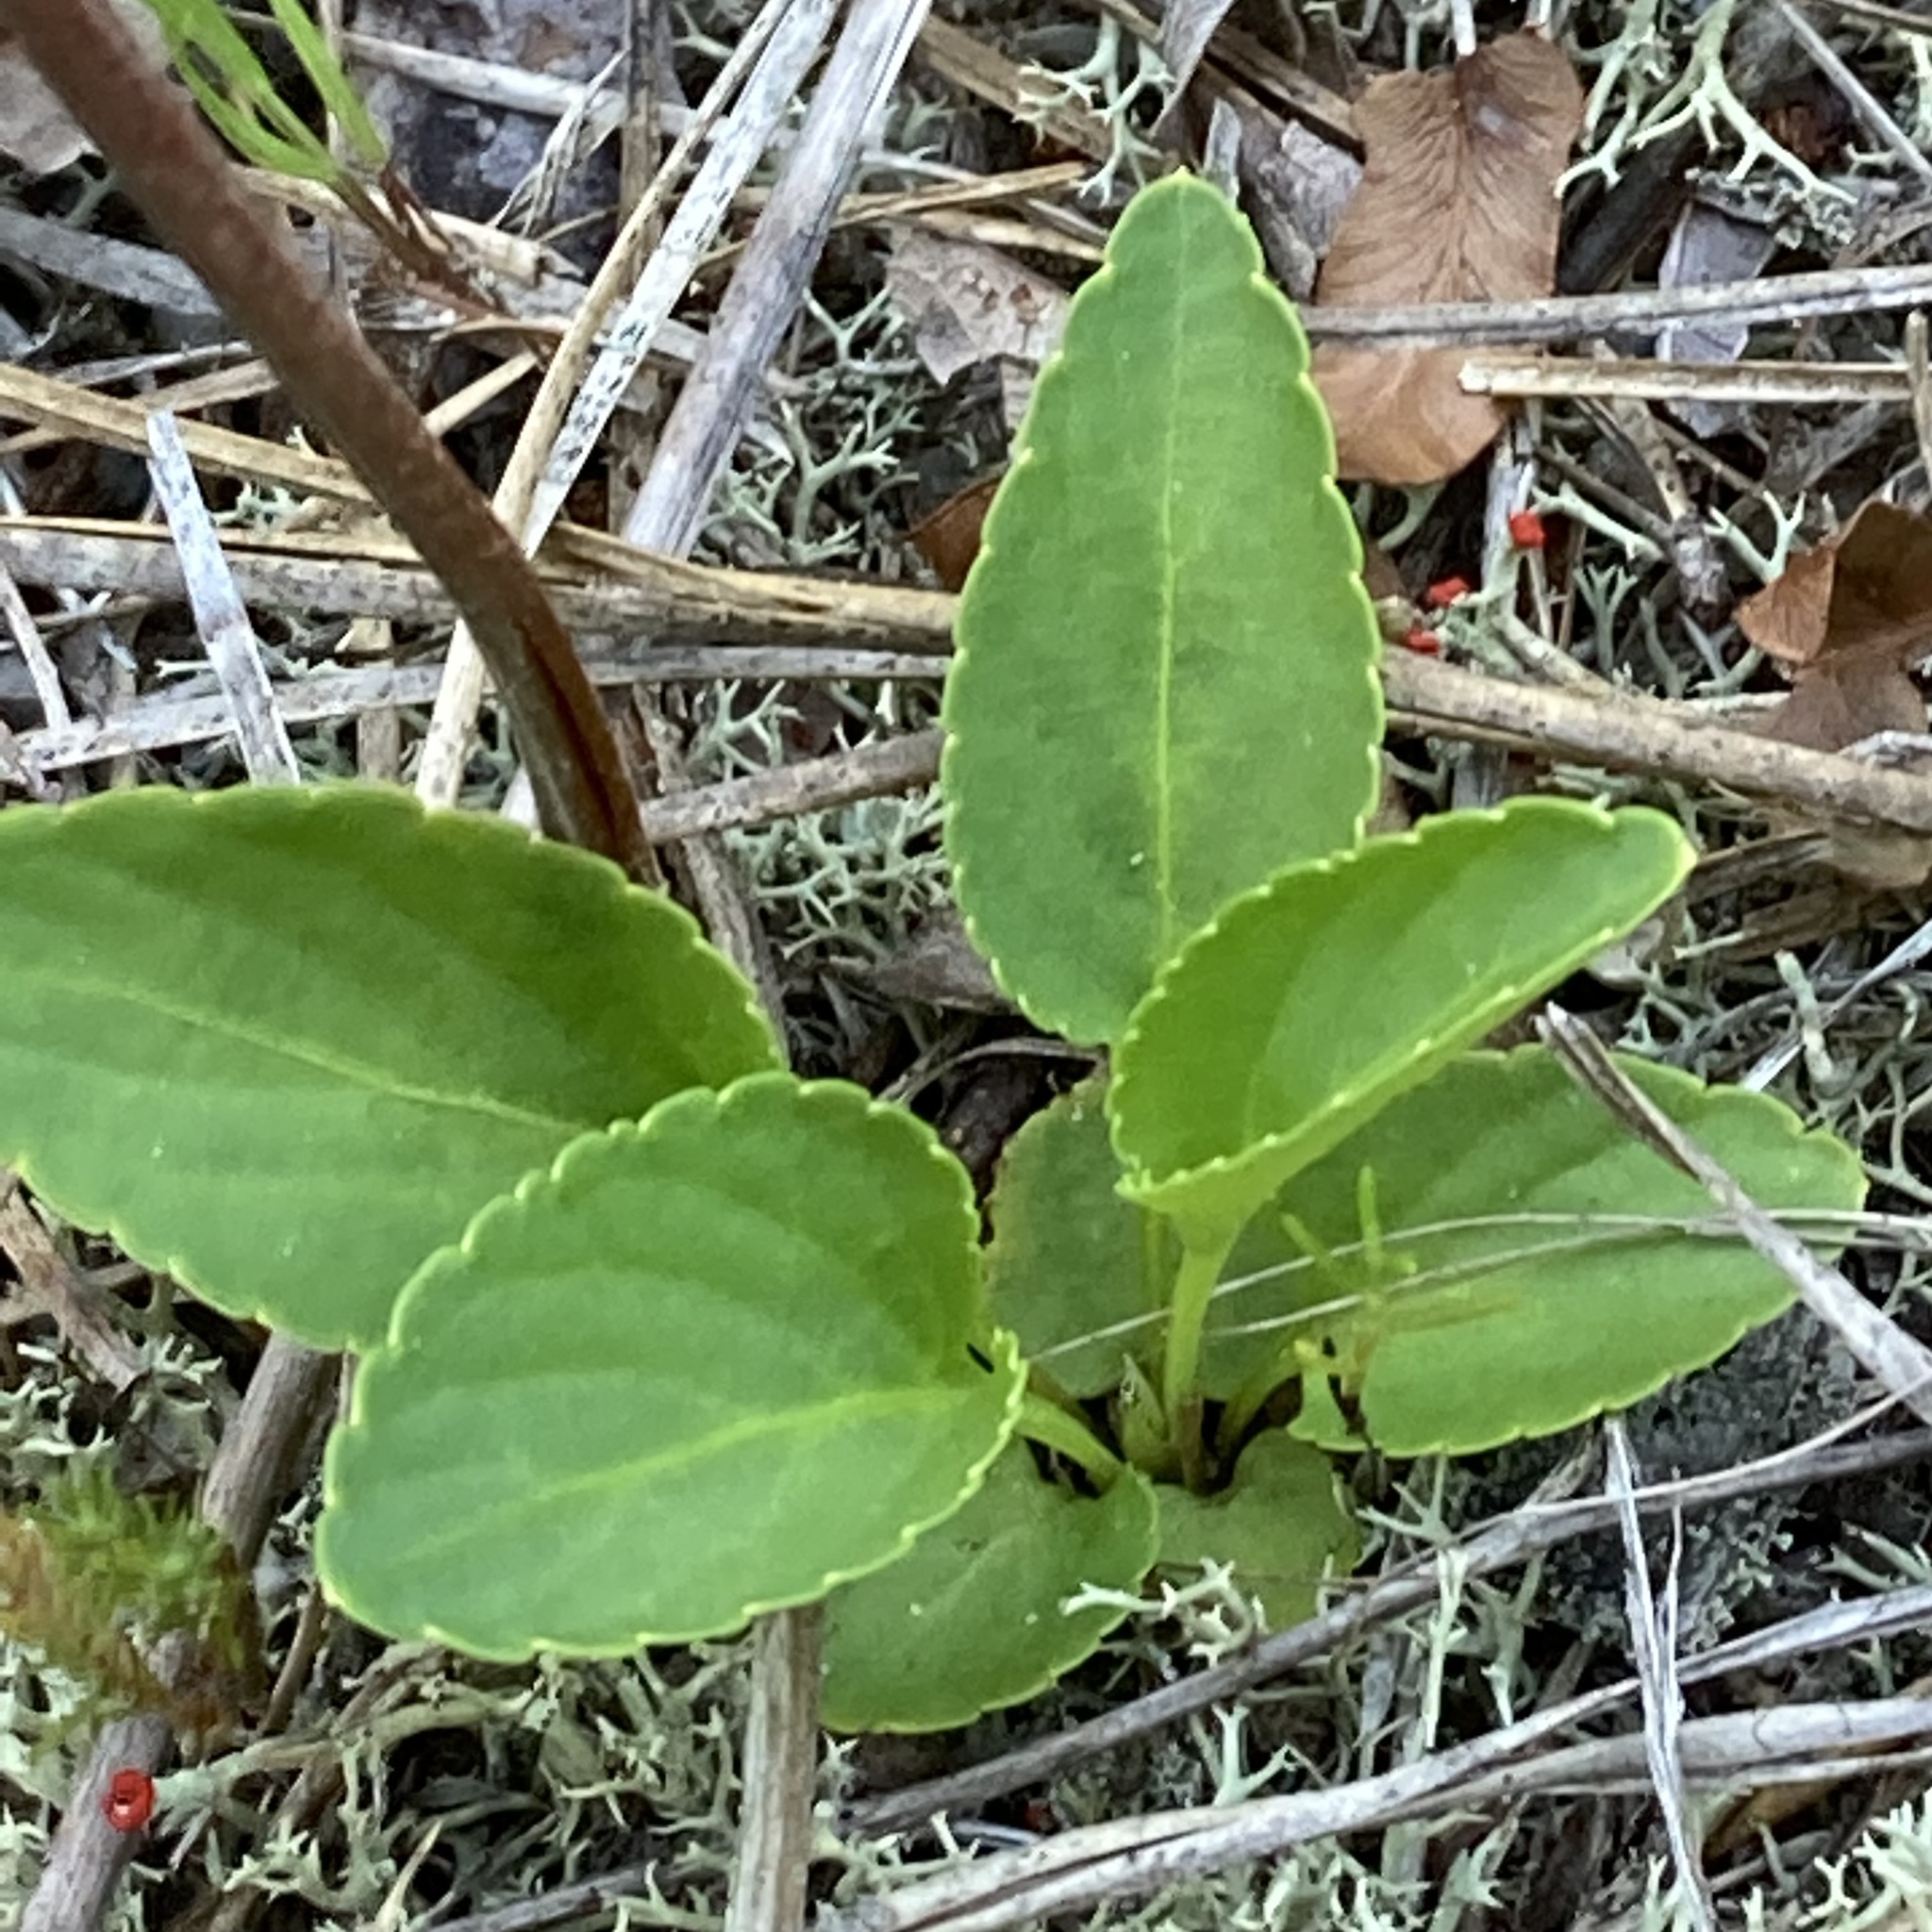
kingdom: Plantae
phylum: Tracheophyta
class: Magnoliopsida
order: Malpighiales
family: Violaceae
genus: Viola
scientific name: Viola primulifolia
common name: Primrose-leaf violet
